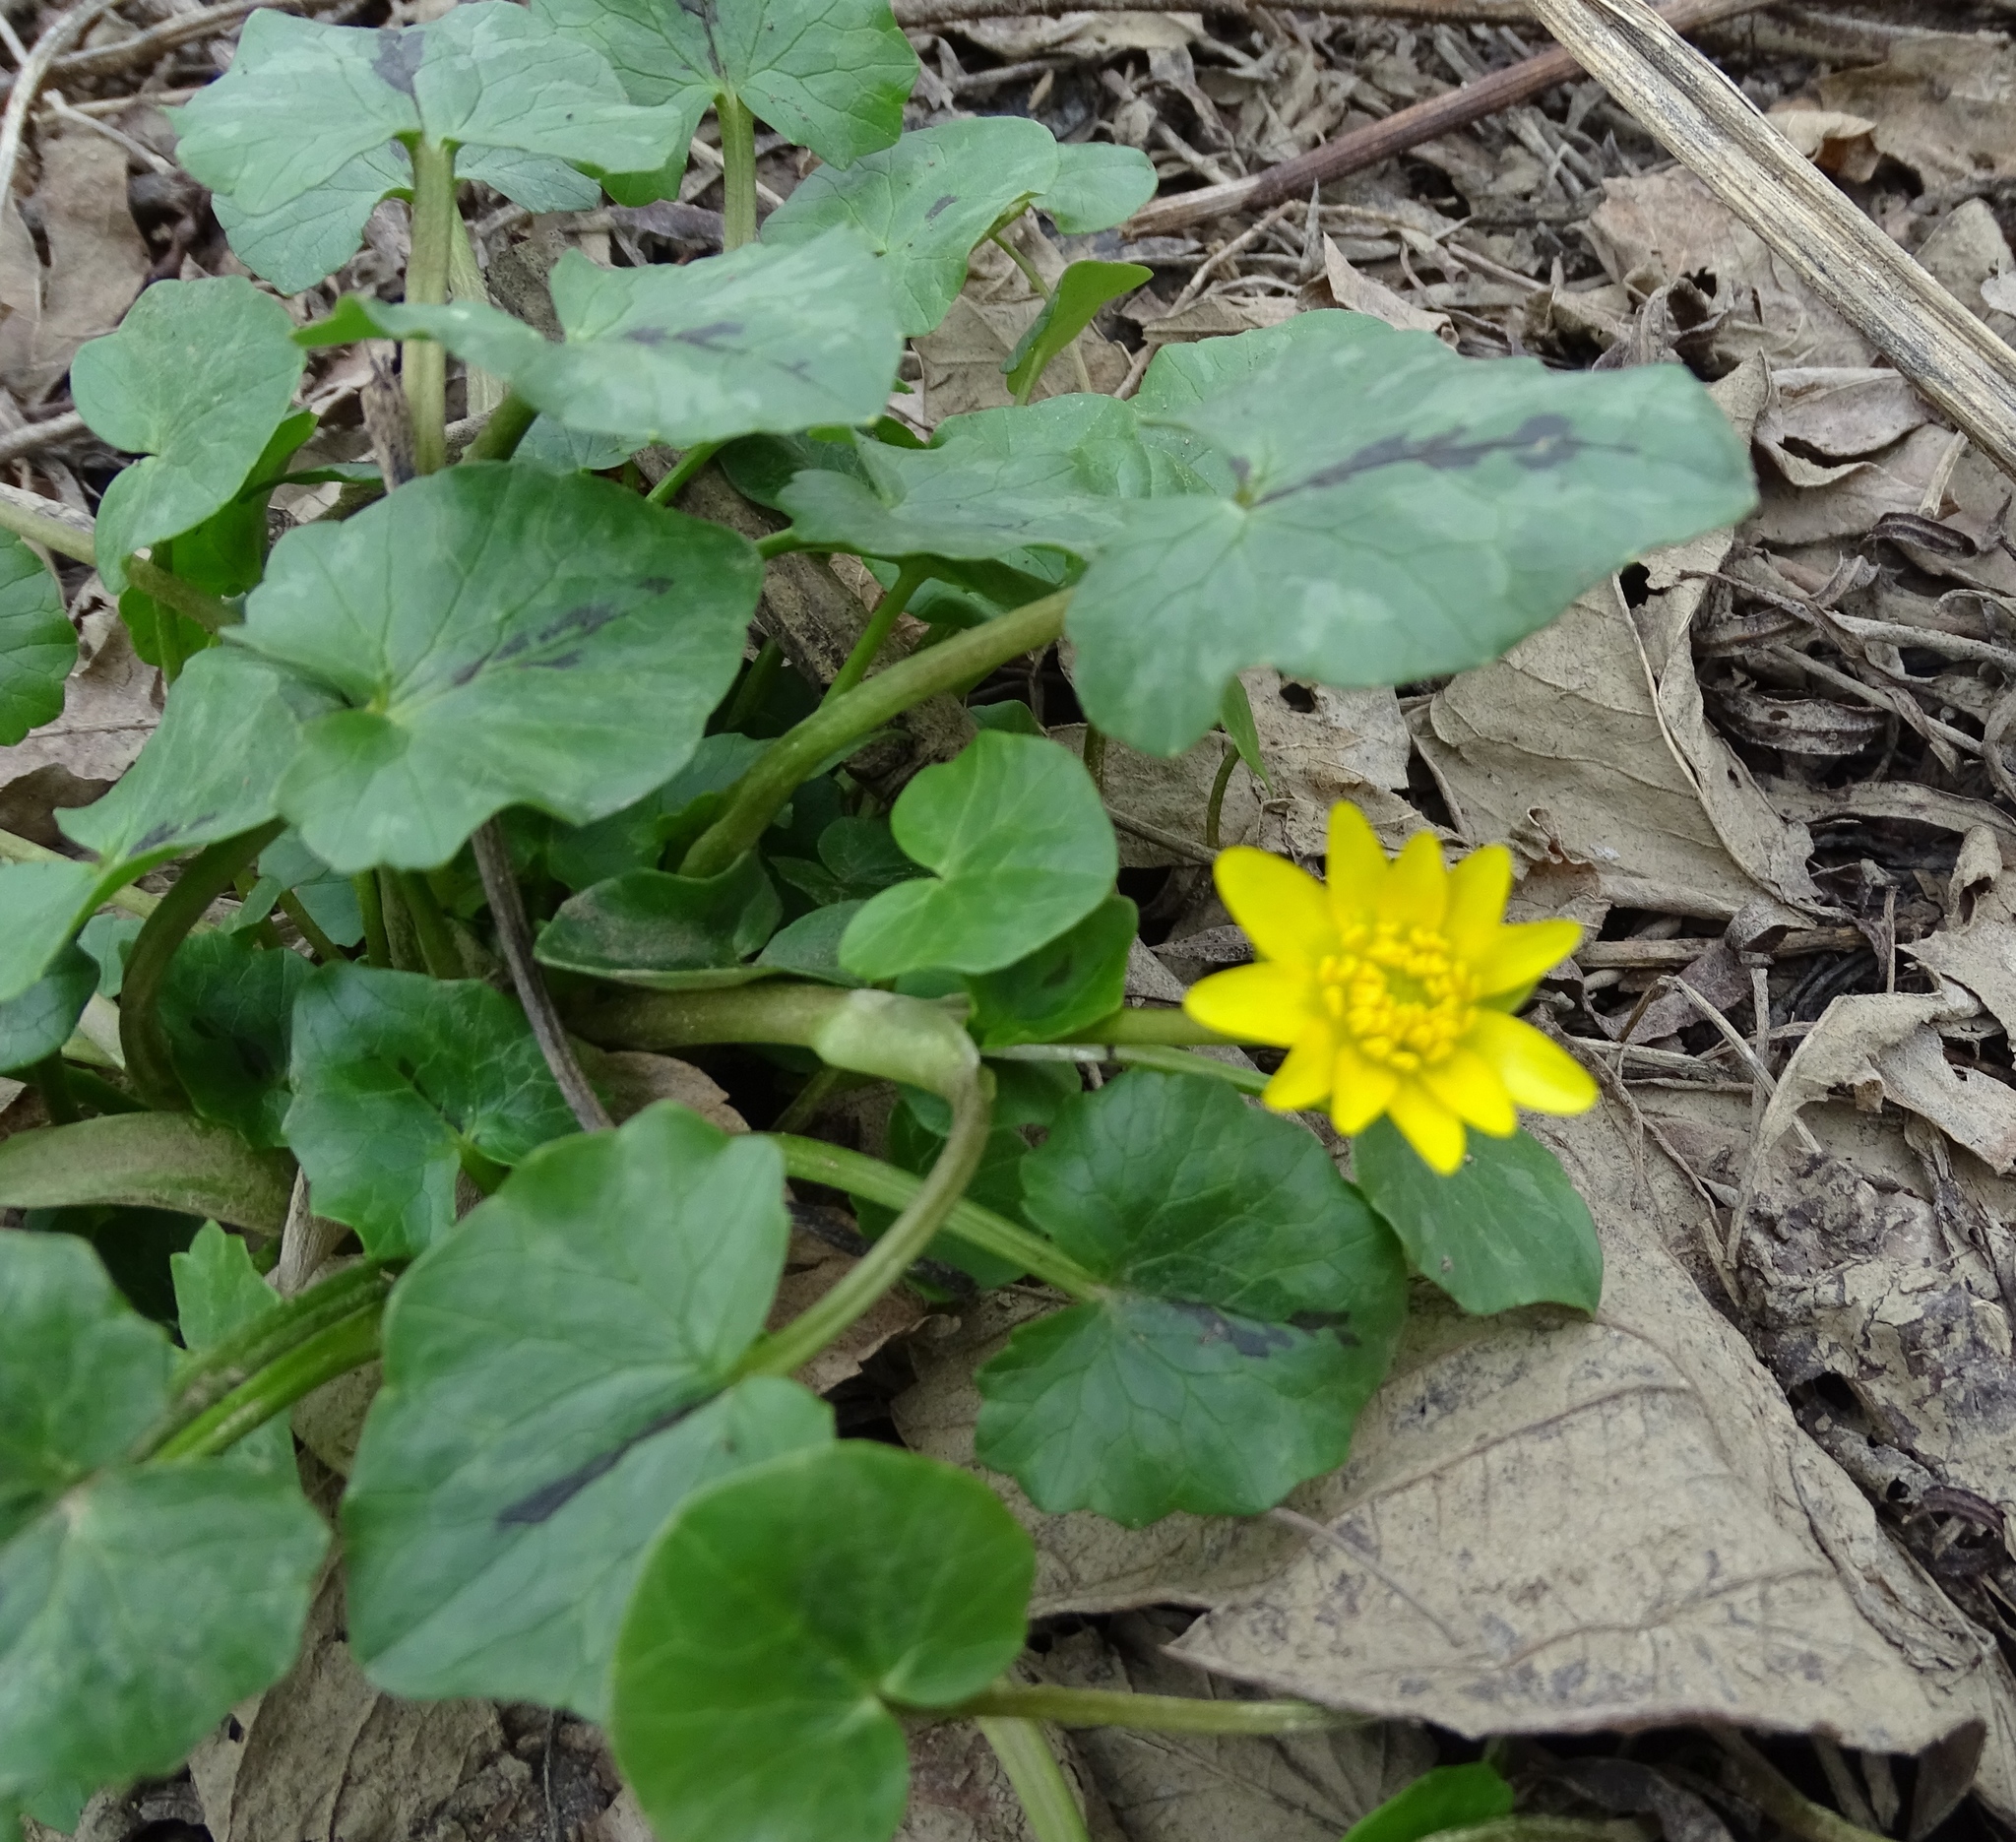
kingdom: Plantae
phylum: Tracheophyta
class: Magnoliopsida
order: Ranunculales
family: Ranunculaceae
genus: Ficaria
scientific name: Ficaria verna
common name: Lesser celandine
